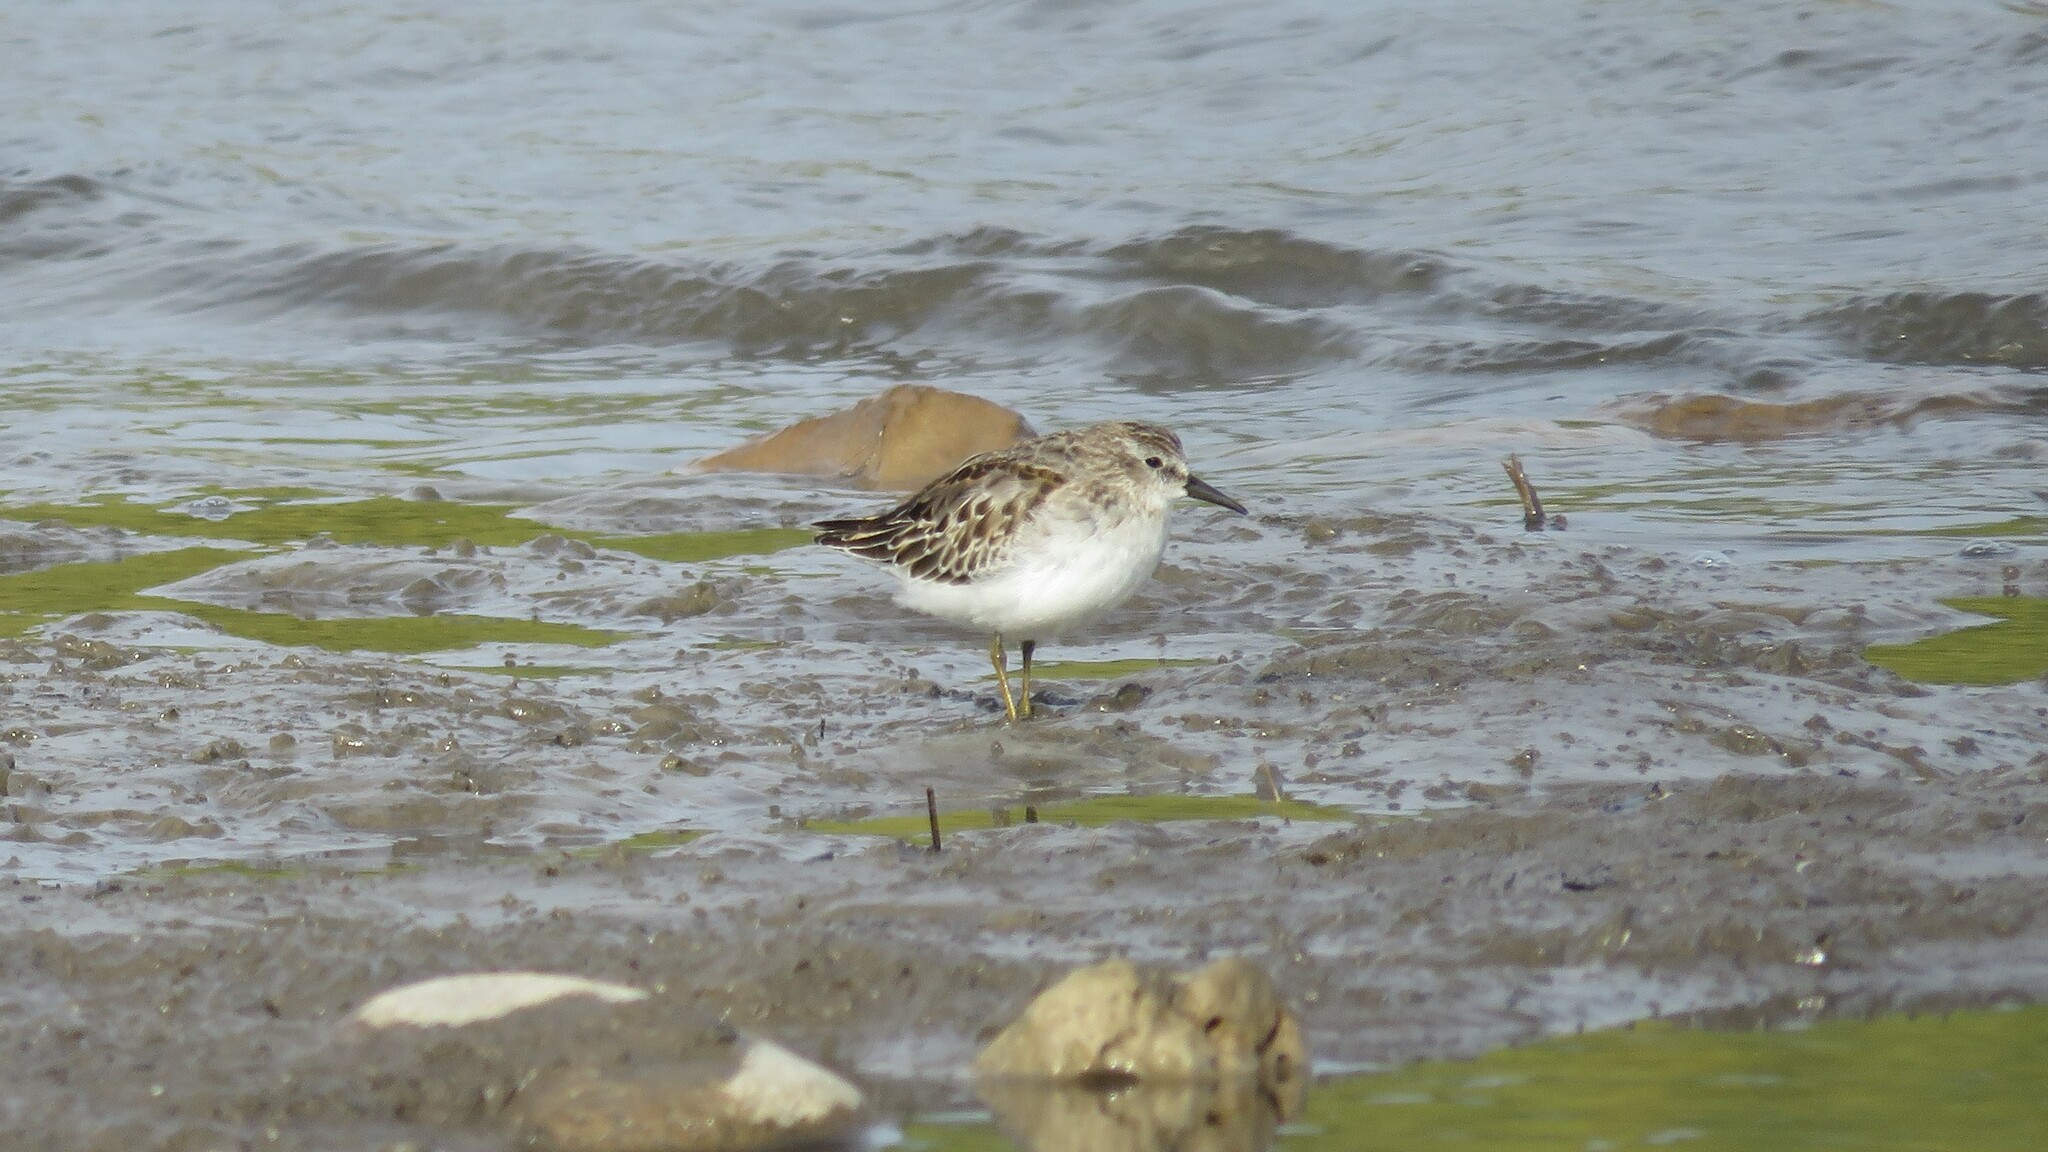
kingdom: Animalia
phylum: Chordata
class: Aves
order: Charadriiformes
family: Scolopacidae
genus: Calidris
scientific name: Calidris minutilla
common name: Least sandpiper
